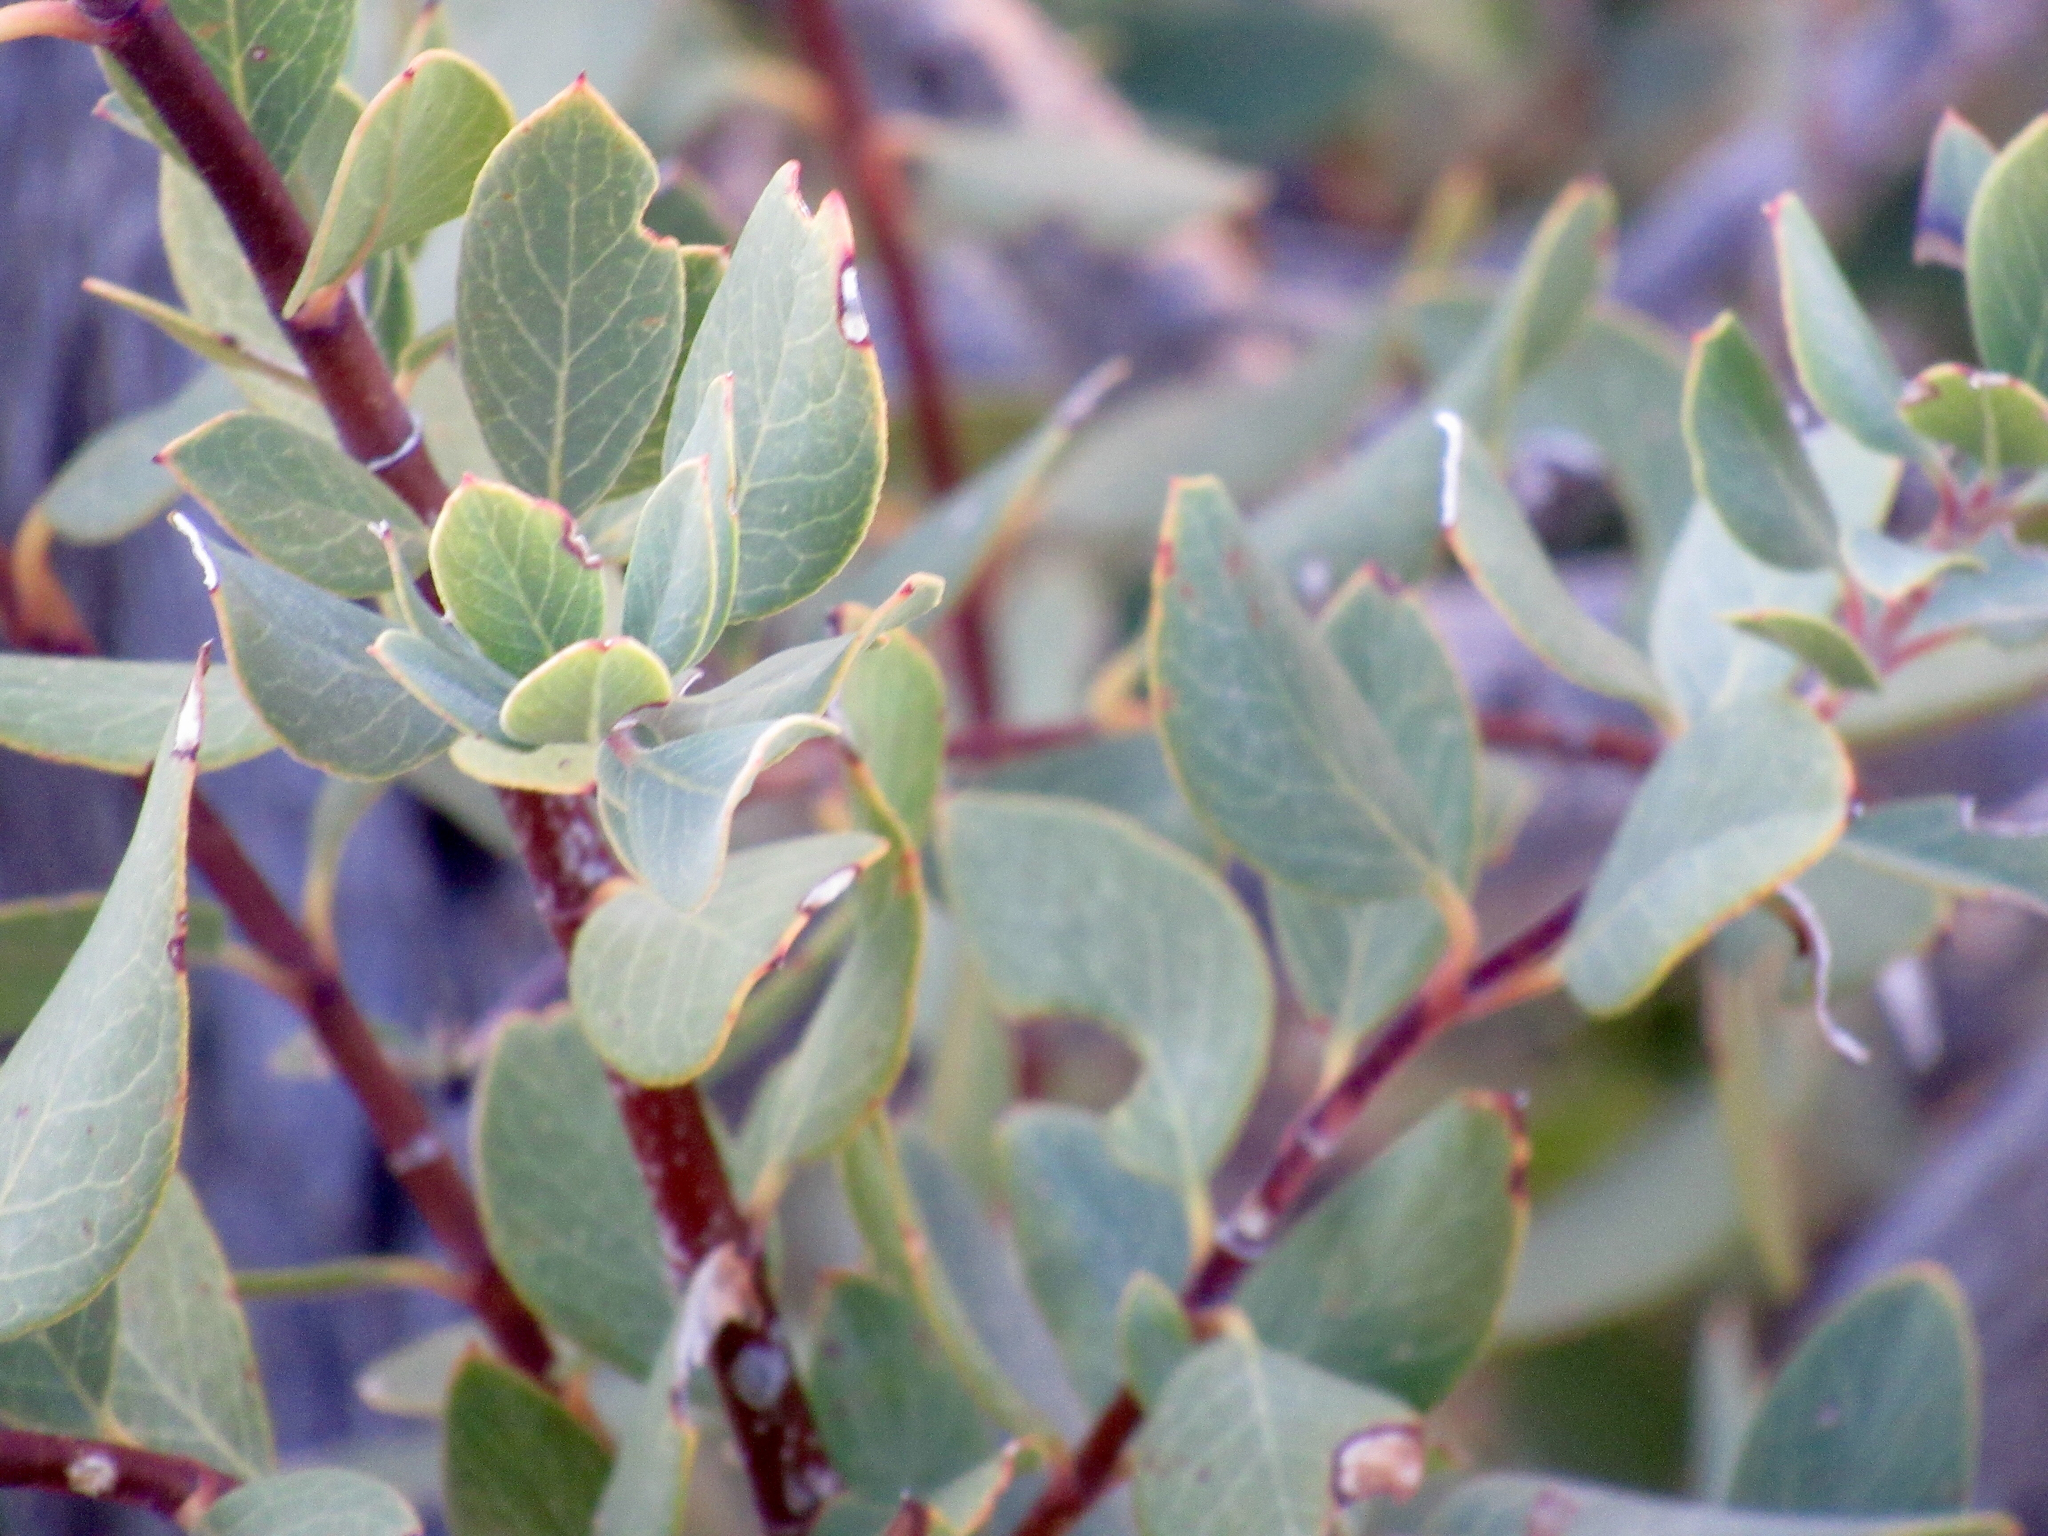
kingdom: Plantae
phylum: Tracheophyta
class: Magnoliopsida
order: Garryales
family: Garryaceae
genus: Garrya
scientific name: Garrya wrightii
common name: Wright's silktassel
